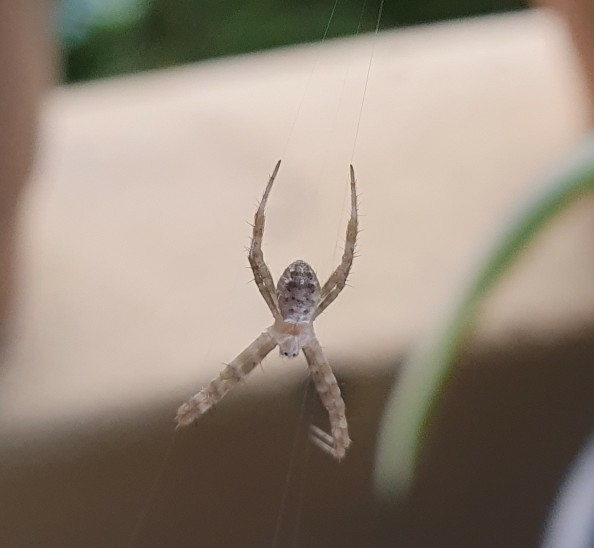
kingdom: Animalia
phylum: Arthropoda
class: Arachnida
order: Araneae
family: Araneidae
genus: Argiope
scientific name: Argiope keyserlingi
